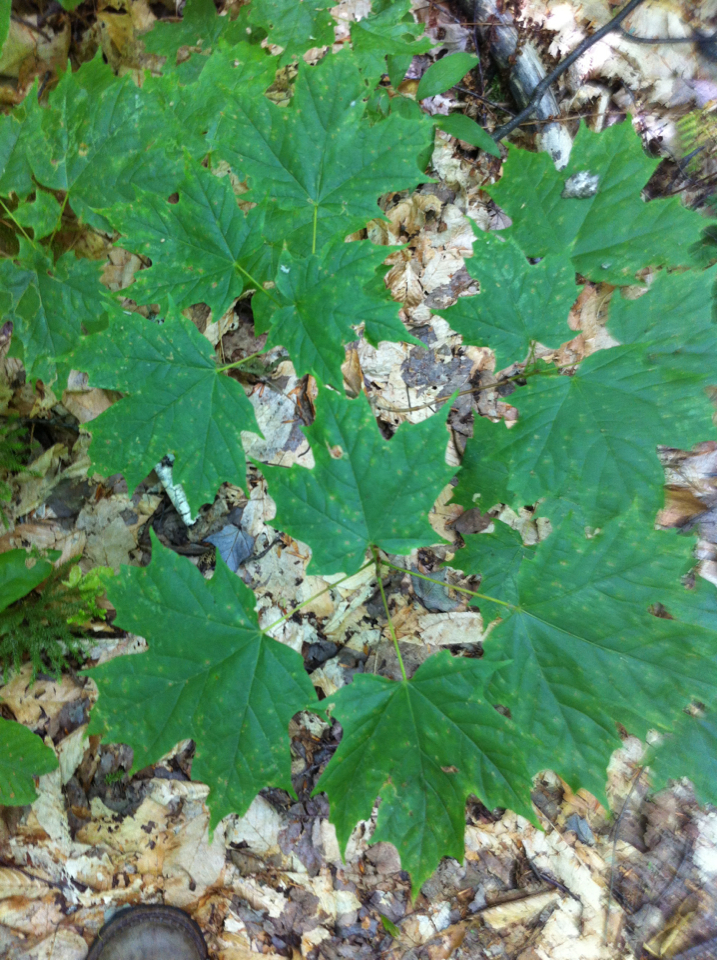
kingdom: Plantae
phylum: Tracheophyta
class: Magnoliopsida
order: Sapindales
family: Sapindaceae
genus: Acer
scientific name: Acer saccharum
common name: Sugar maple
